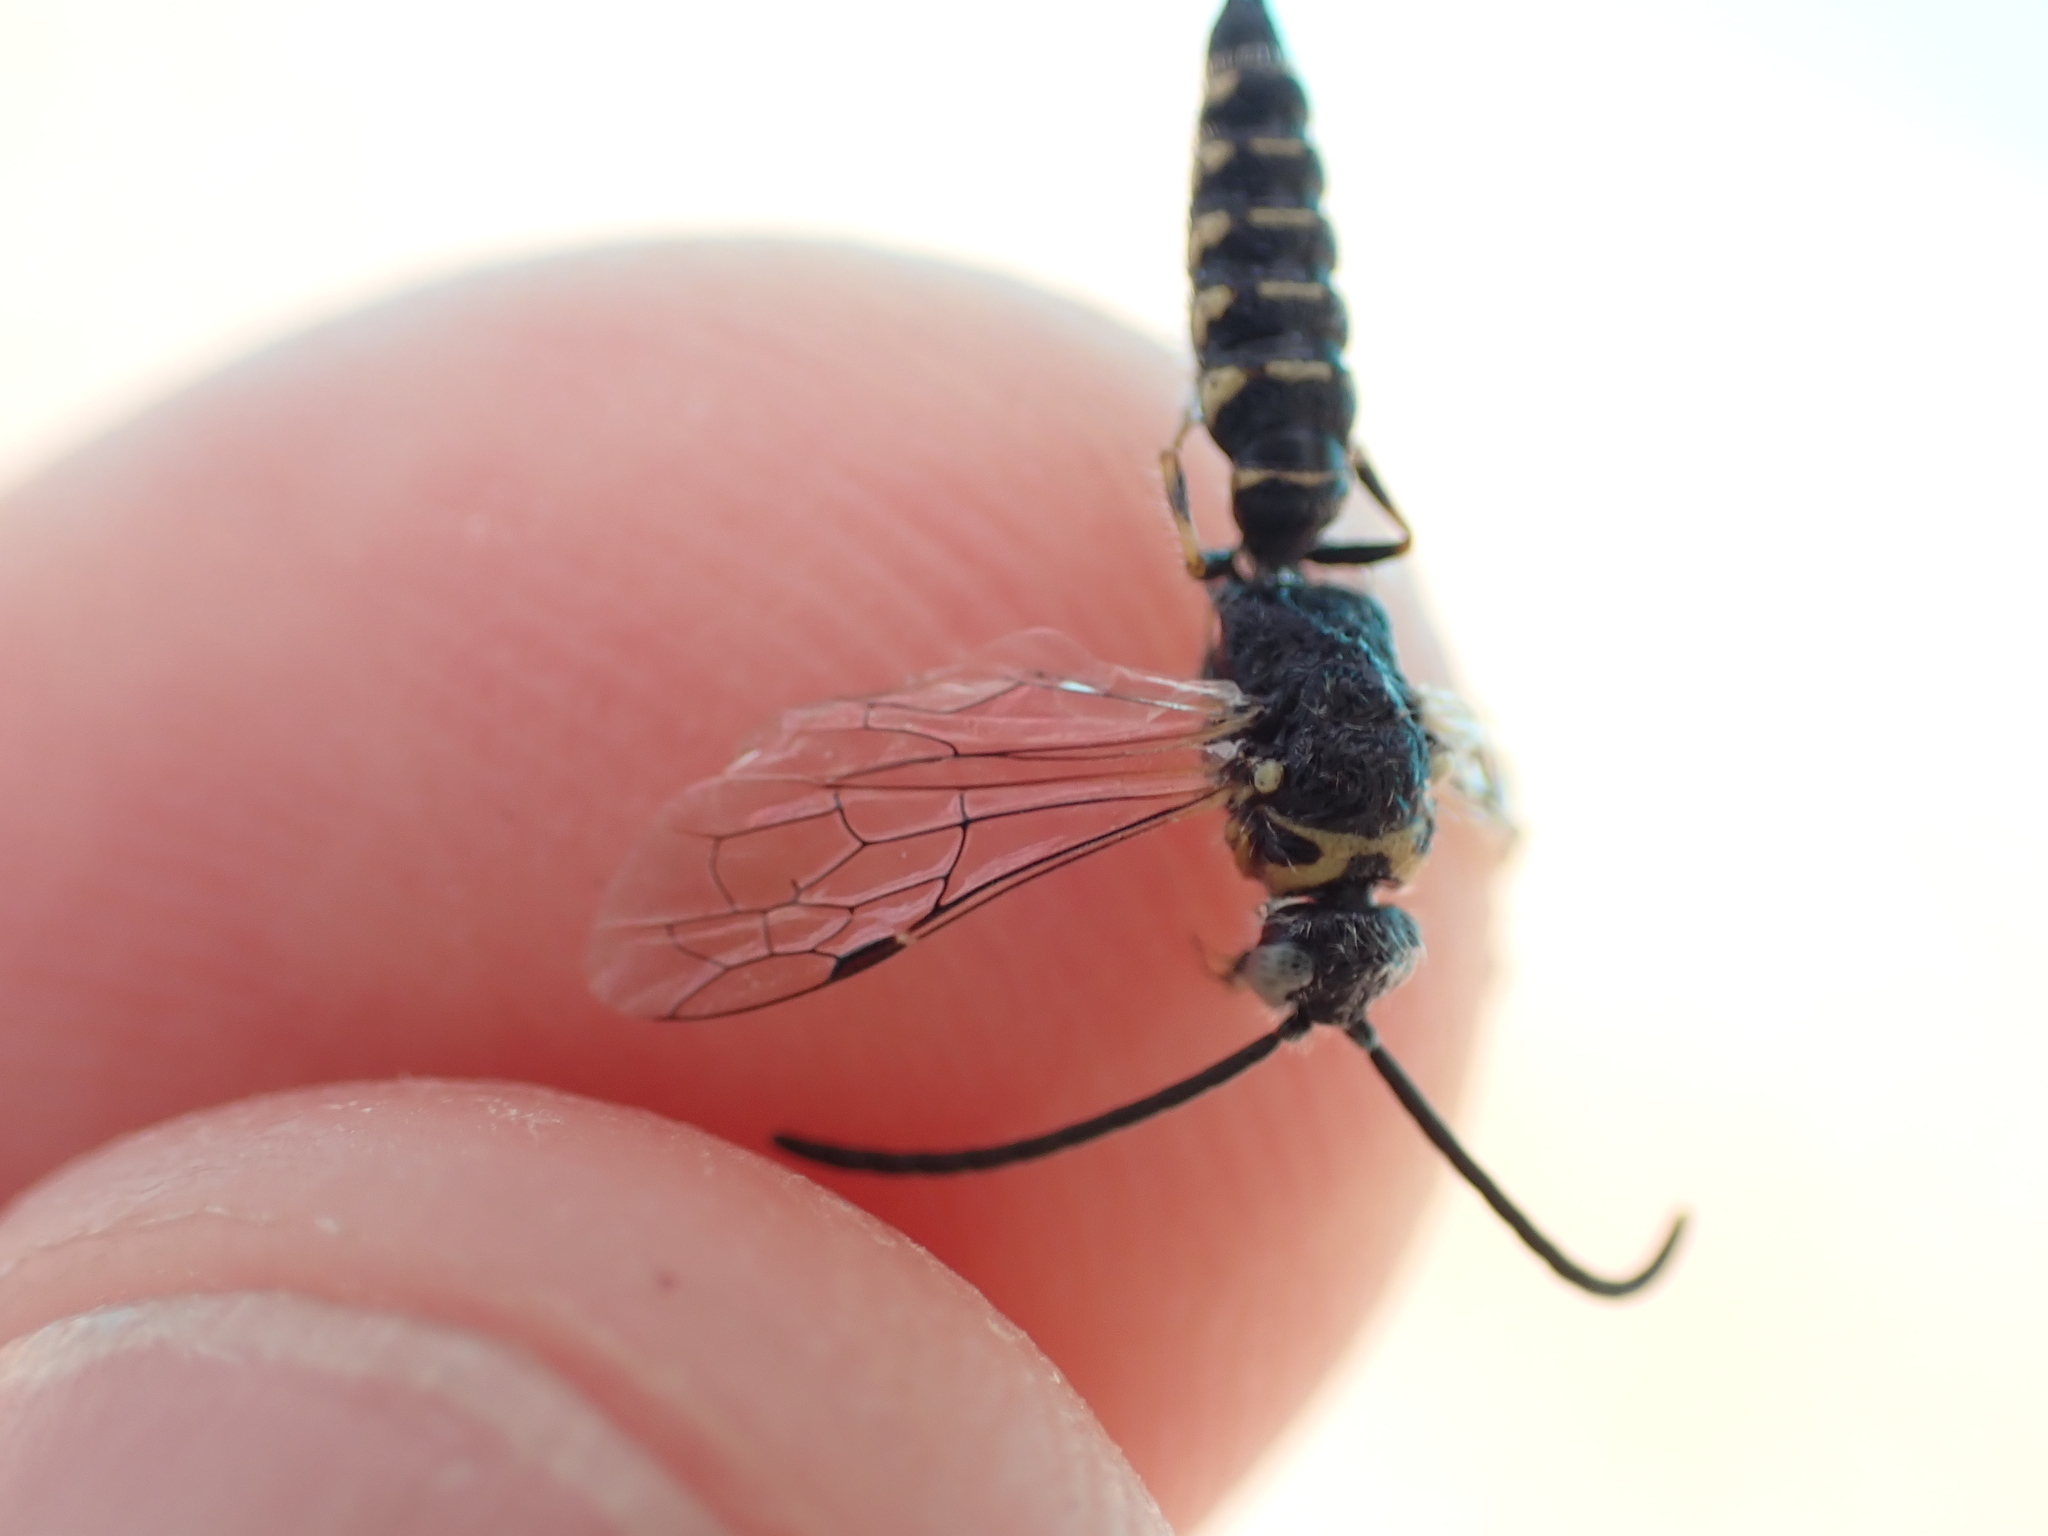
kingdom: Animalia
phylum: Arthropoda
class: Insecta
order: Hymenoptera
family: Tiphiidae
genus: Poecilotiphia
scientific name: Poecilotiphia
